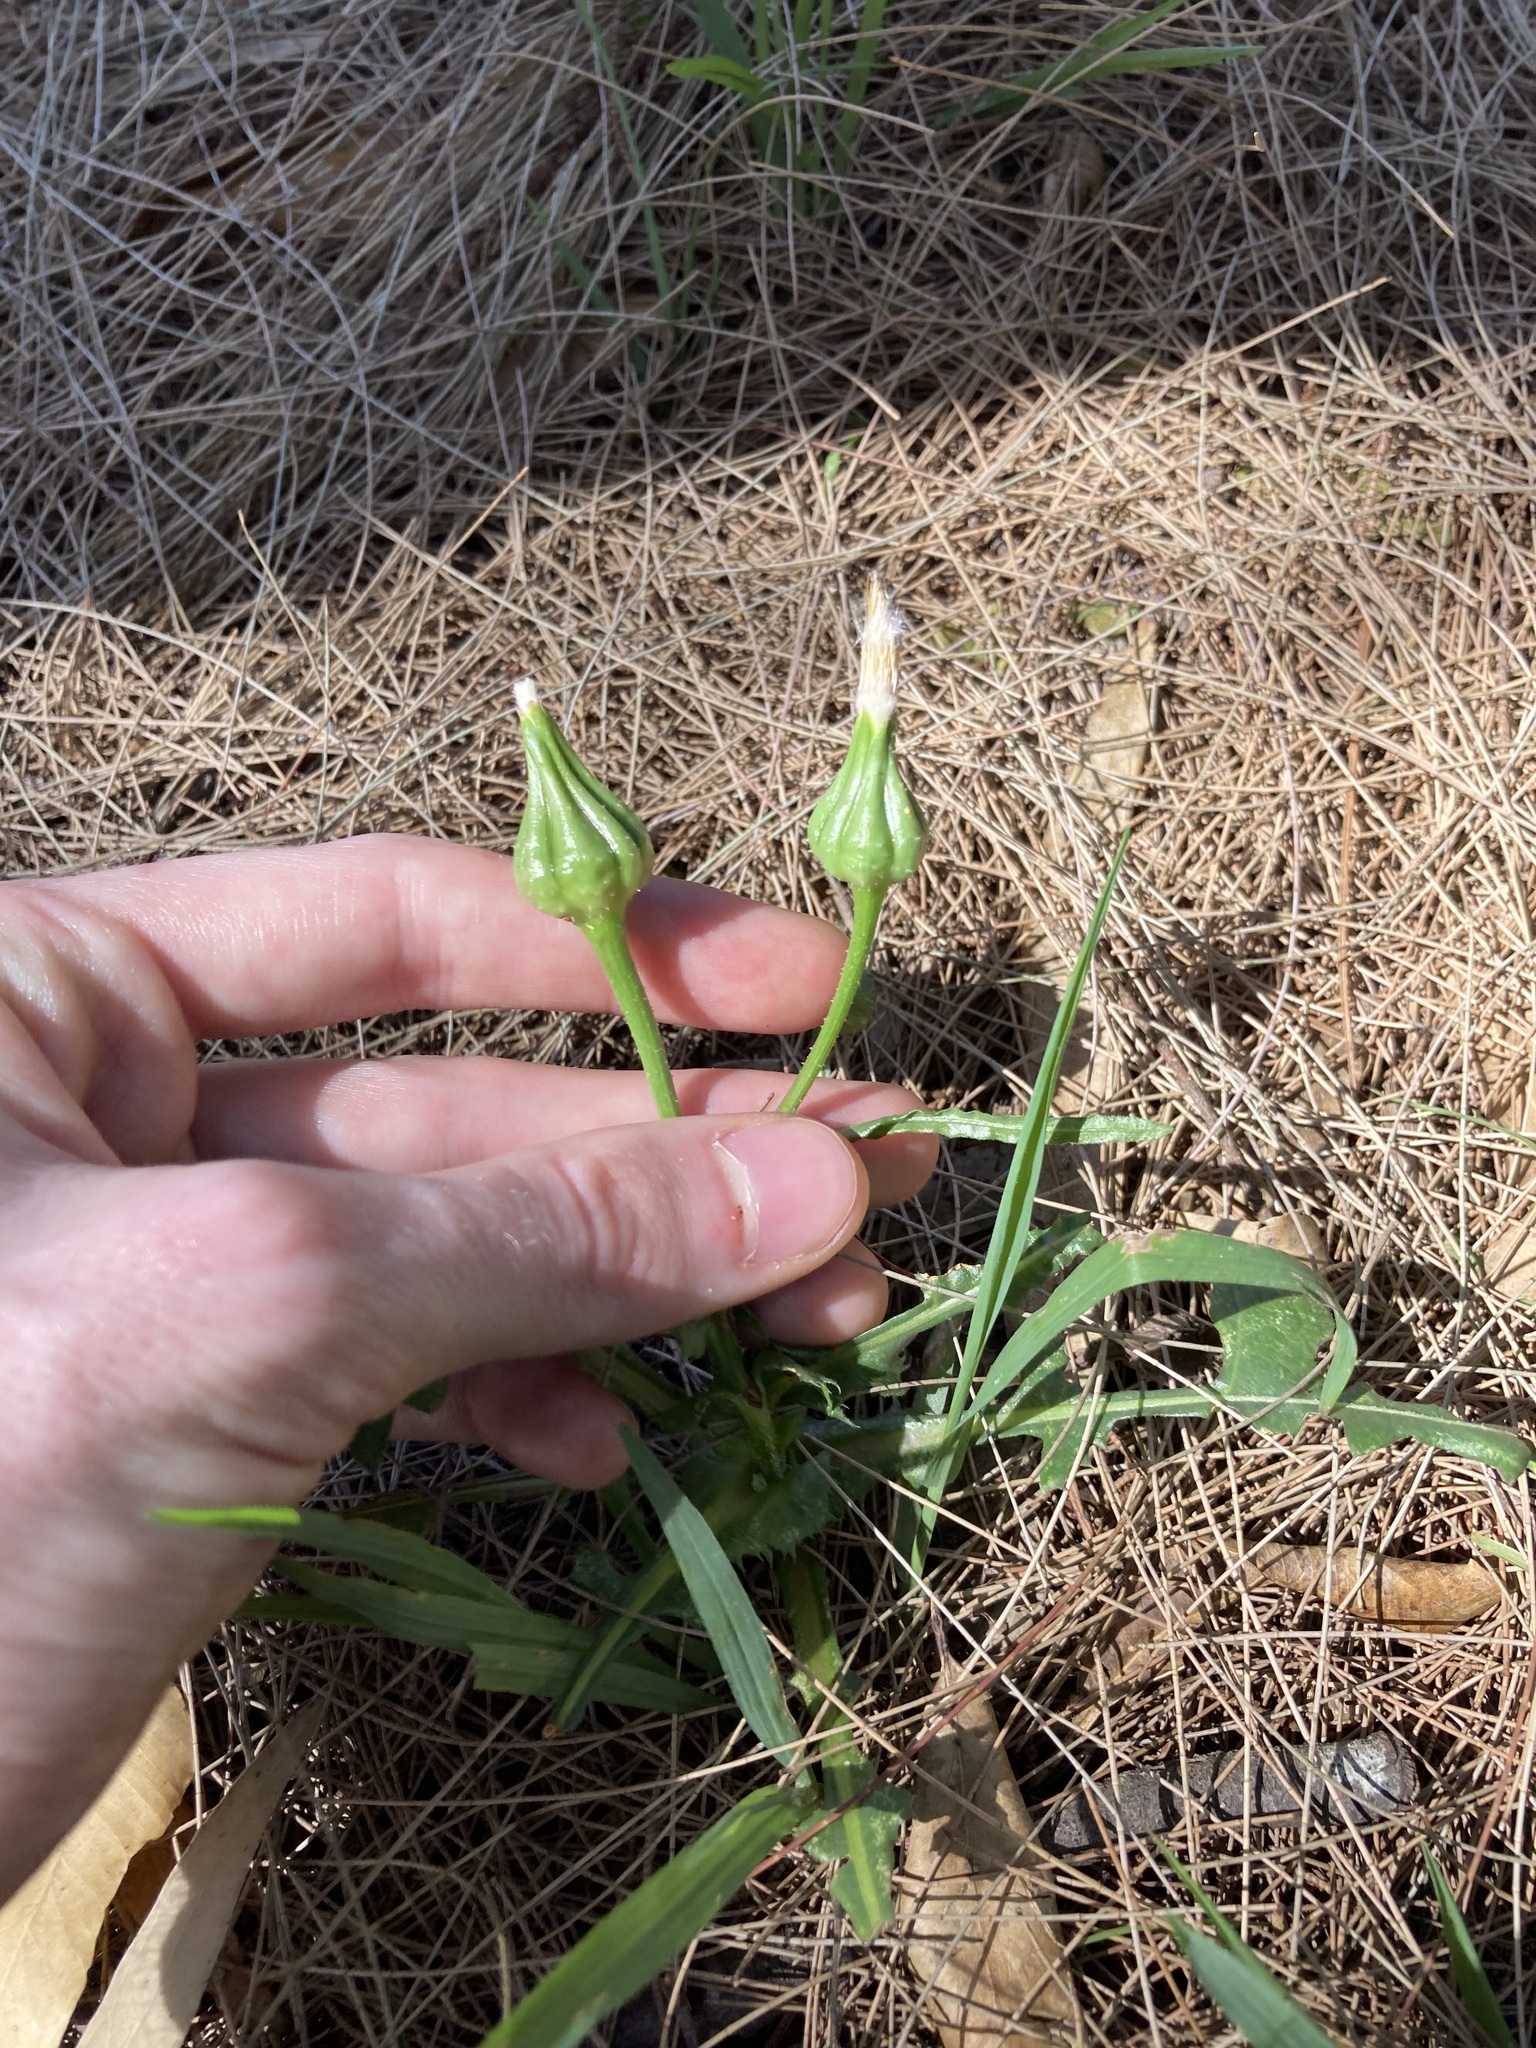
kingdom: Plantae
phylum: Tracheophyta
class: Magnoliopsida
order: Asterales
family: Asteraceae
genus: Urospermum
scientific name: Urospermum picroides
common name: False hawkbit
